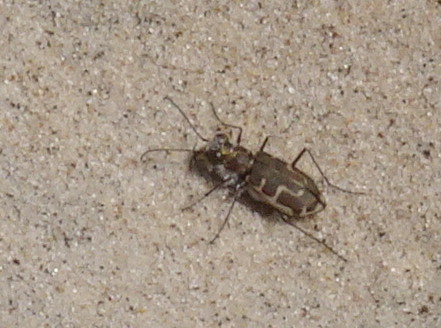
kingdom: Animalia
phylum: Arthropoda
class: Insecta
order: Coleoptera
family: Carabidae
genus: Cicindela
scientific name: Cicindela hirticollis
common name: Hairy-necked tiger beetle
